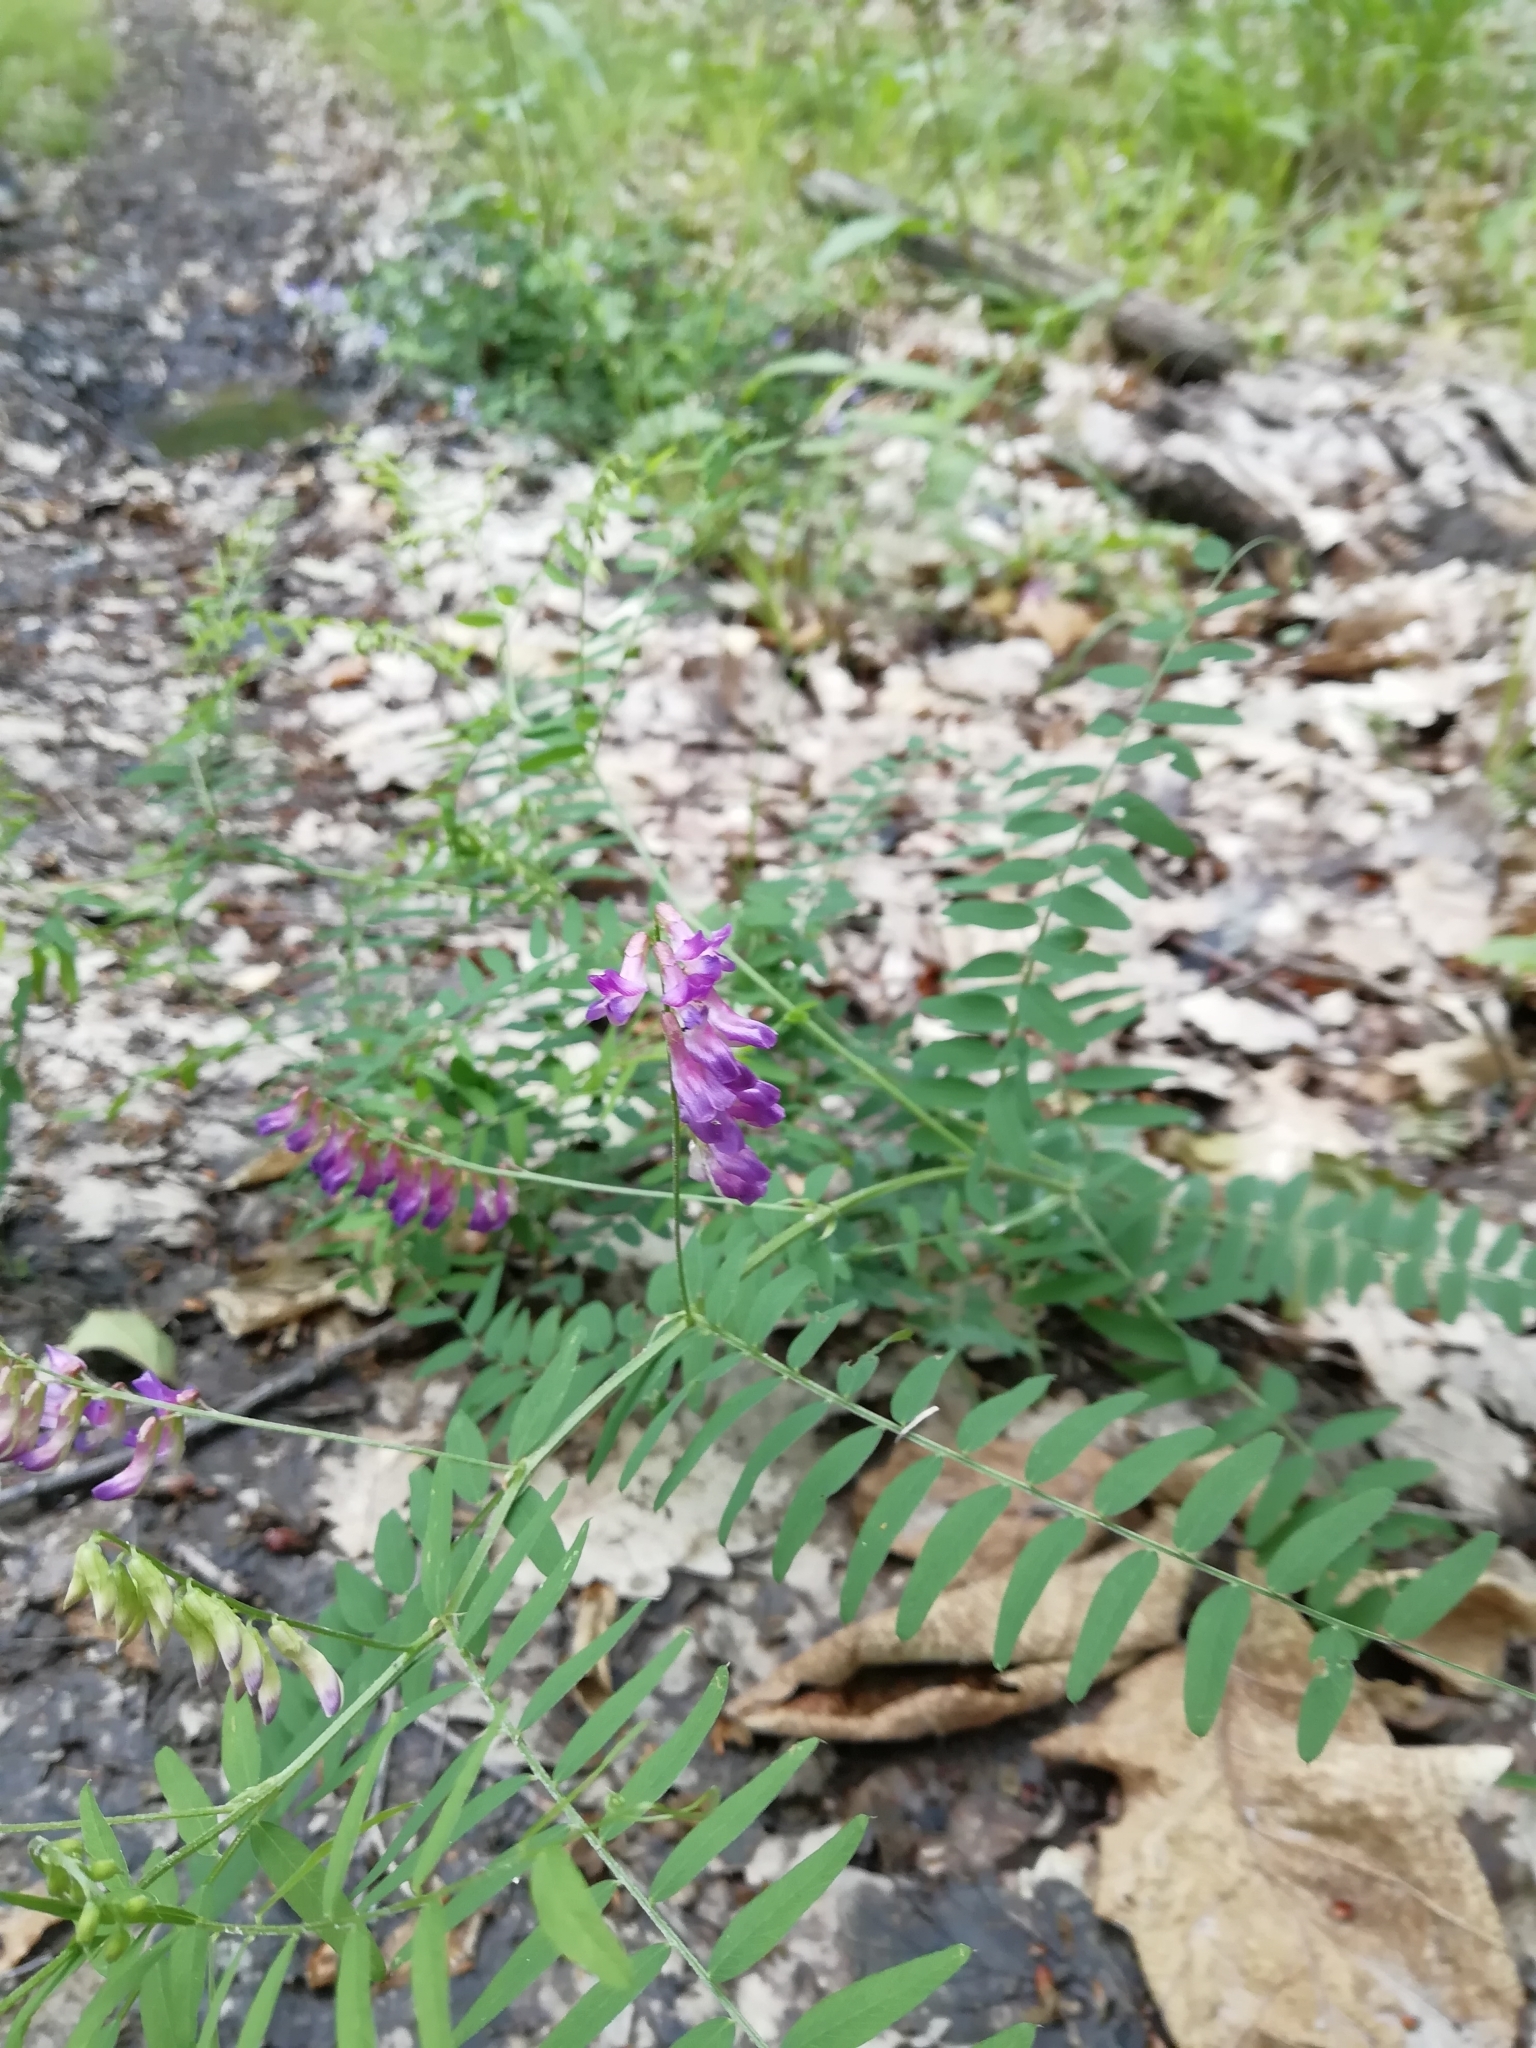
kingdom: Plantae
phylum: Tracheophyta
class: Magnoliopsida
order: Fabales
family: Fabaceae
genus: Vicia
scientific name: Vicia cassubica
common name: Danzig vetch
